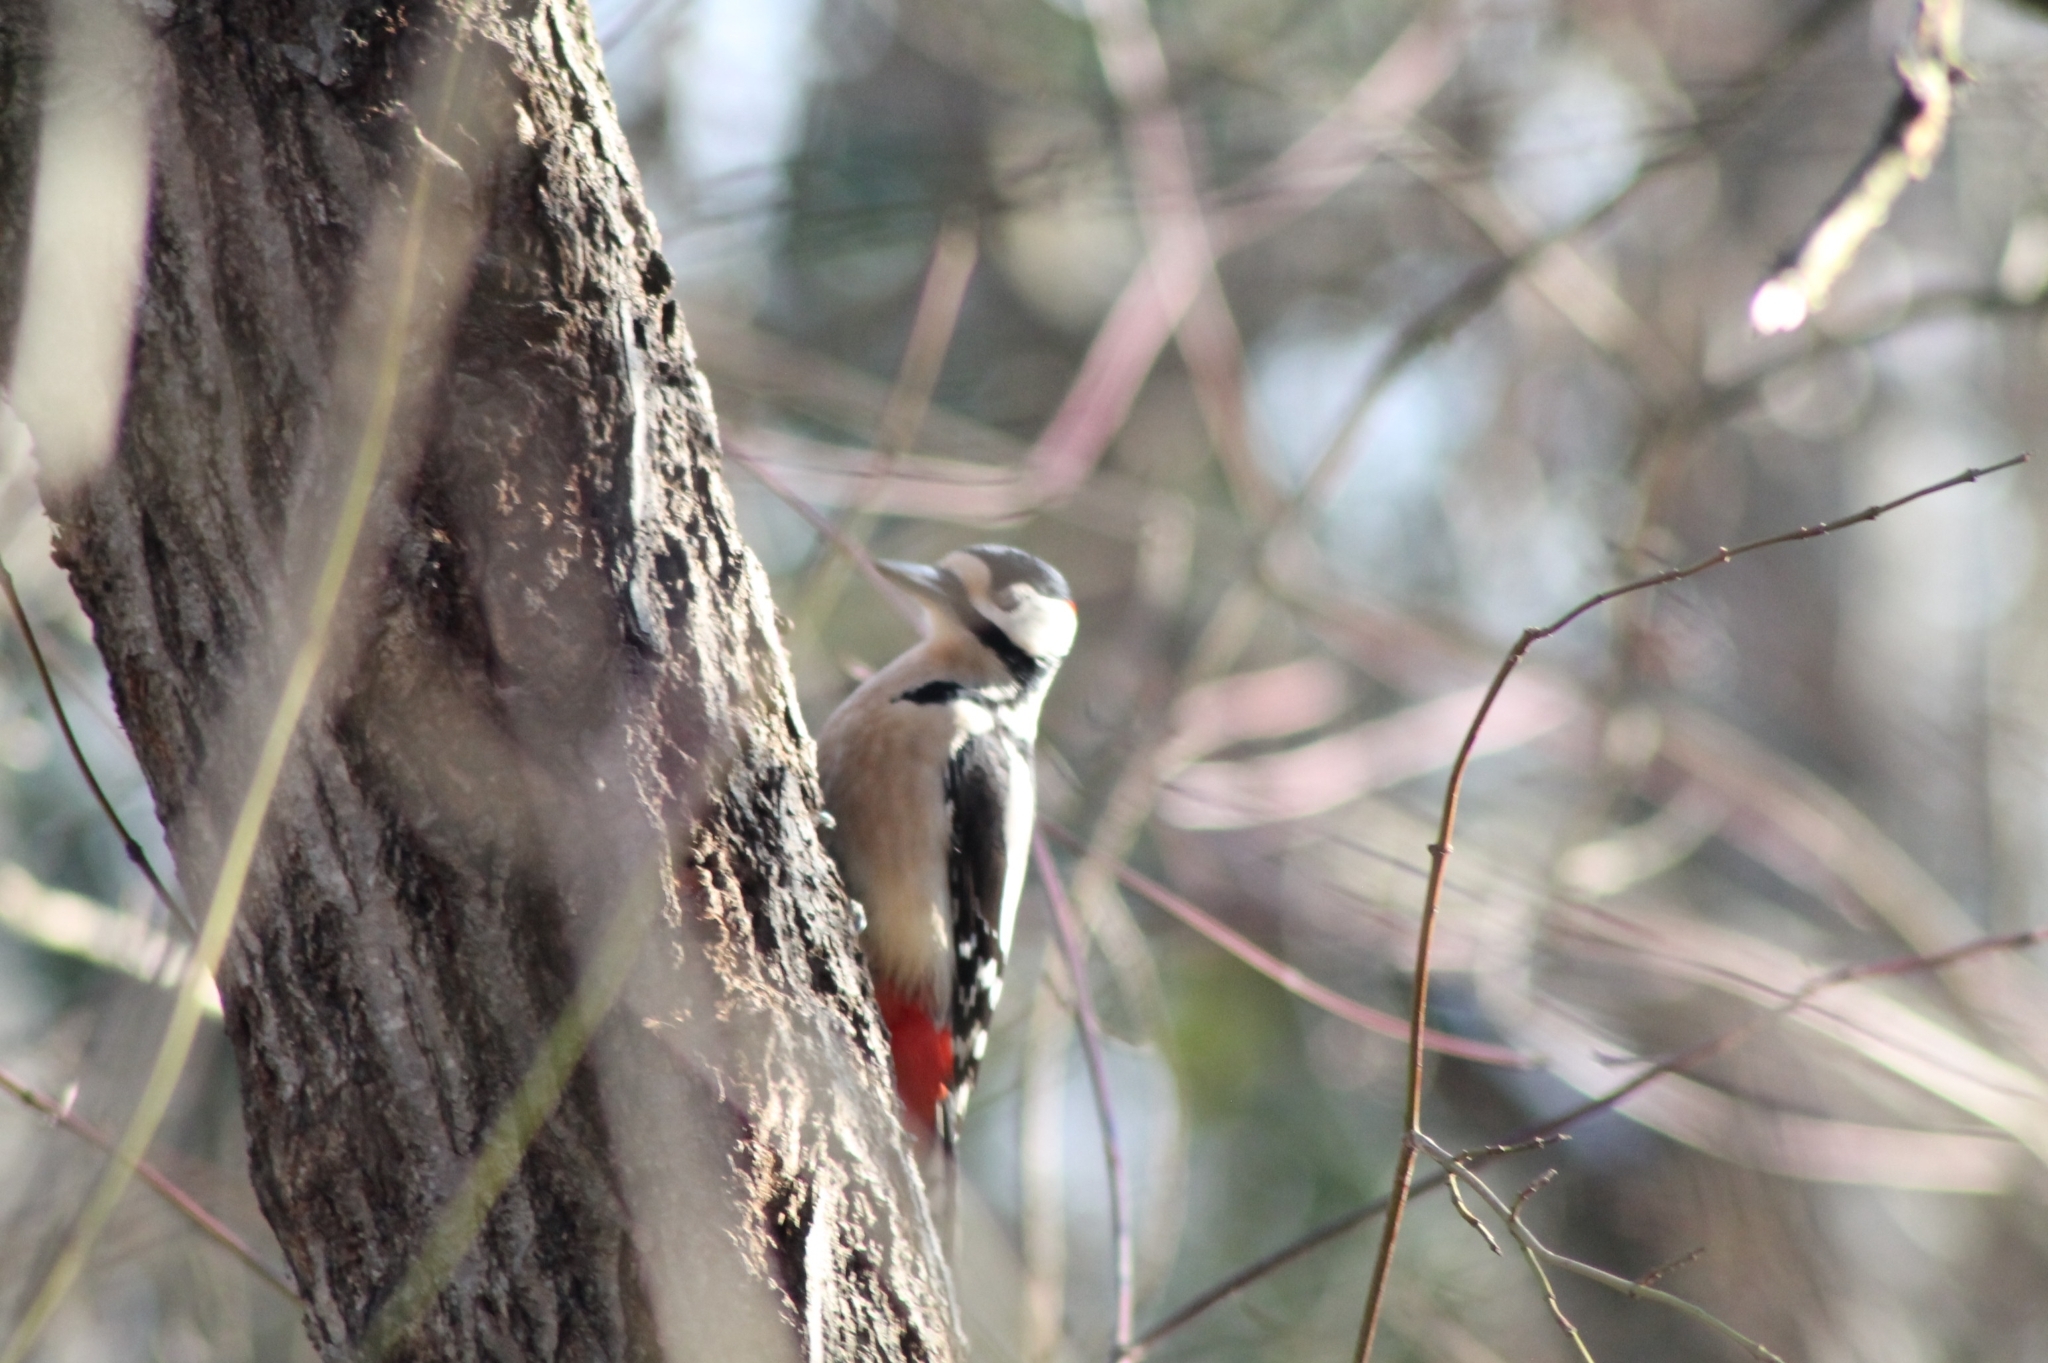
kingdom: Animalia
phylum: Chordata
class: Aves
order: Piciformes
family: Picidae
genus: Dendrocopos
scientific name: Dendrocopos major
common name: Great spotted woodpecker
